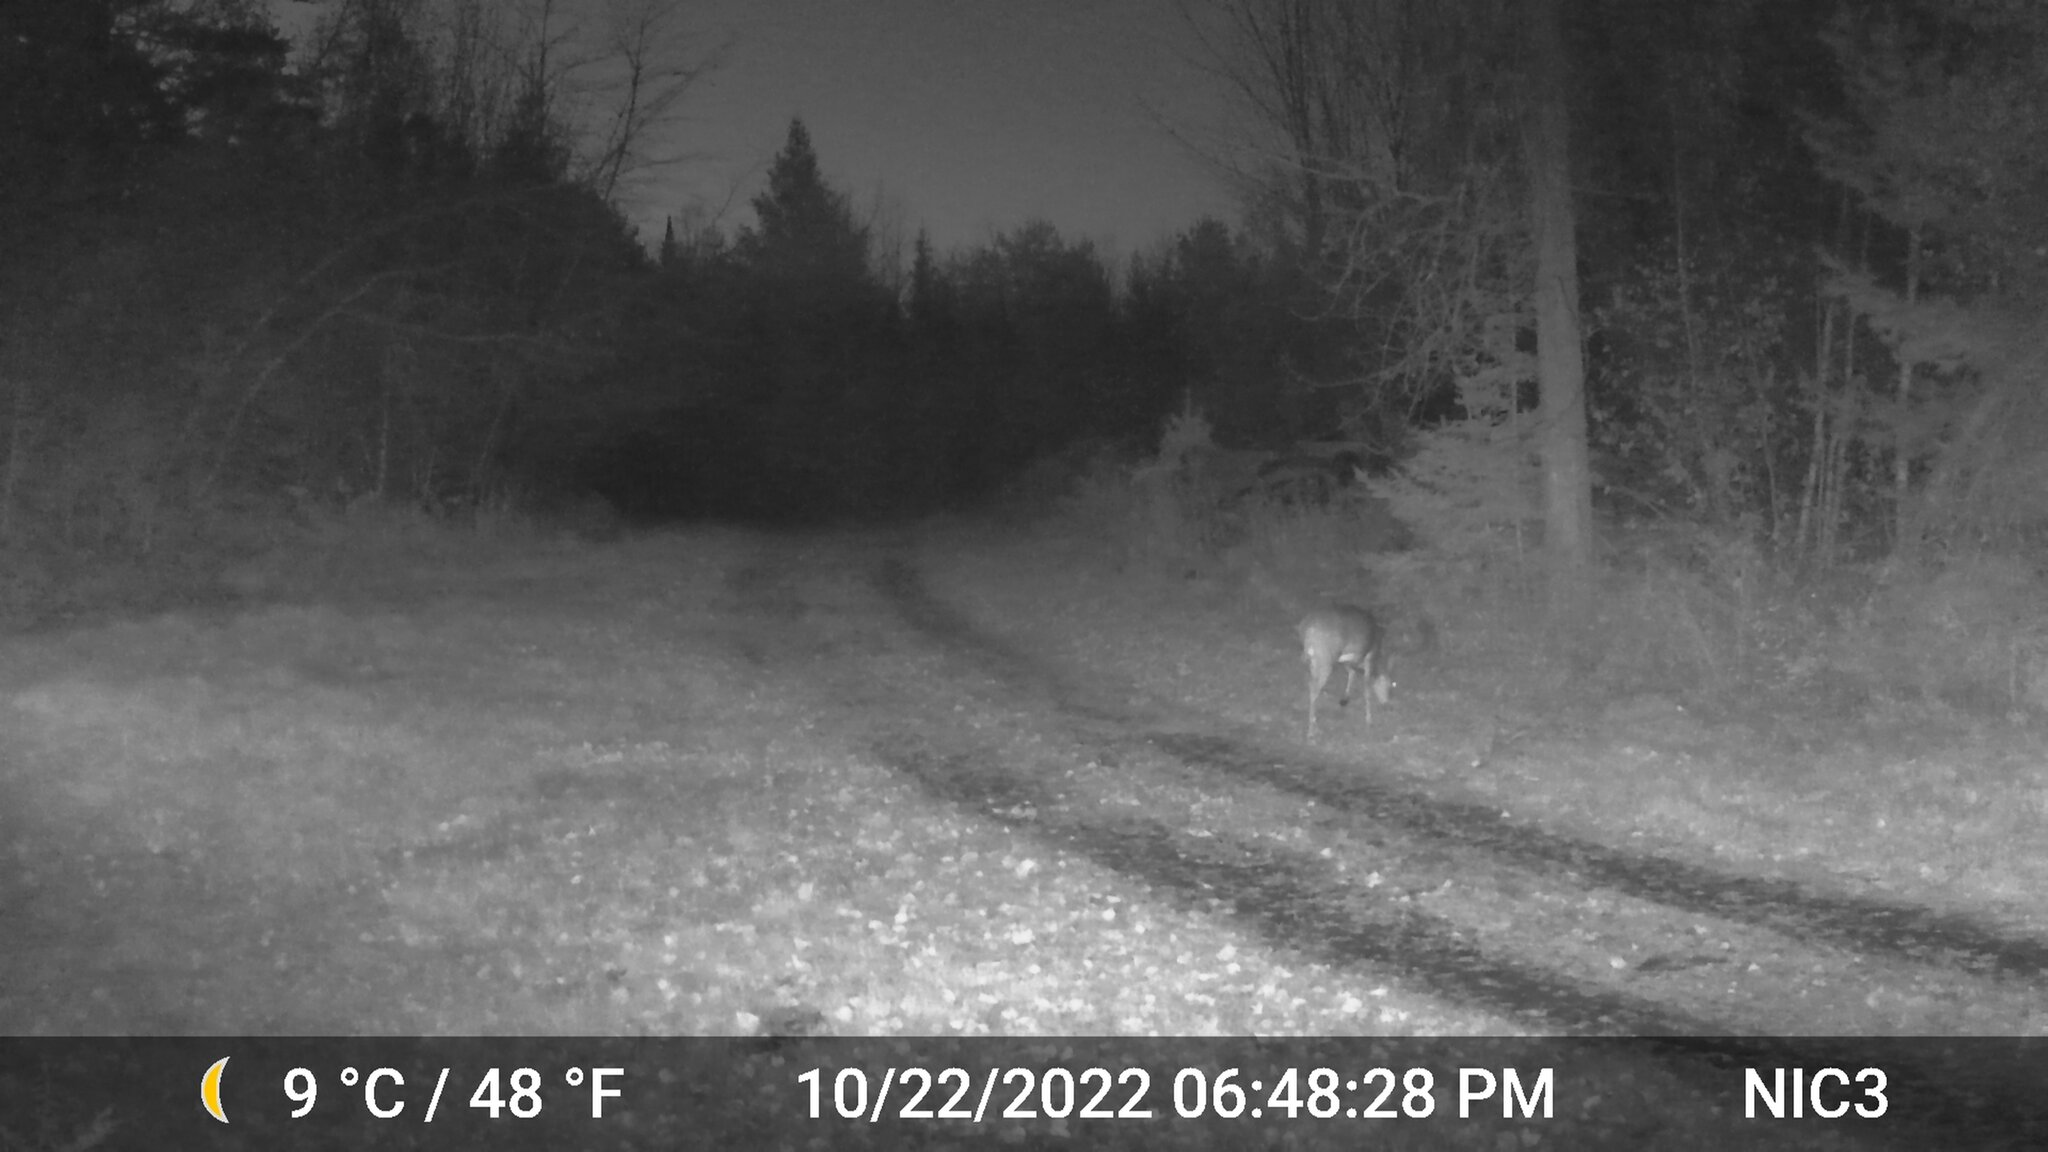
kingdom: Animalia
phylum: Chordata
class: Mammalia
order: Artiodactyla
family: Cervidae
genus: Odocoileus
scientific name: Odocoileus virginianus
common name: White-tailed deer
